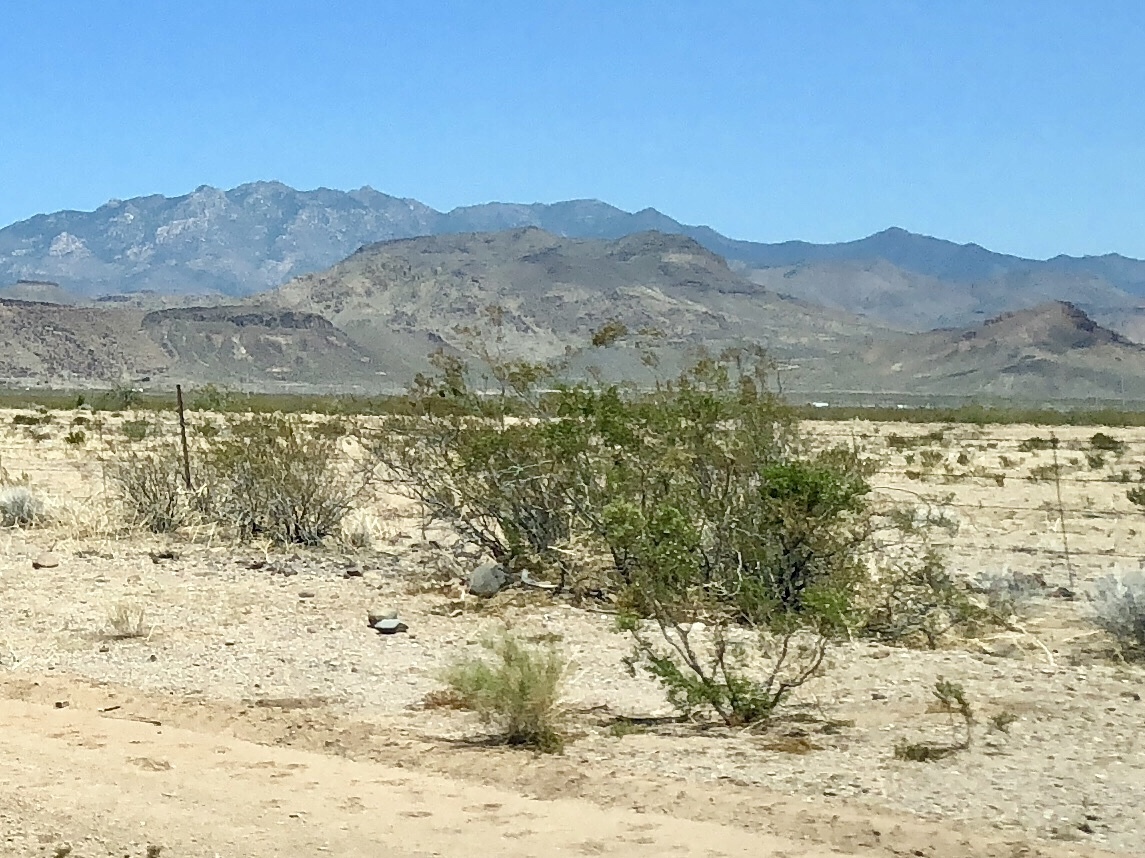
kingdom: Plantae
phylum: Tracheophyta
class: Magnoliopsida
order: Zygophyllales
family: Zygophyllaceae
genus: Larrea
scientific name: Larrea tridentata
